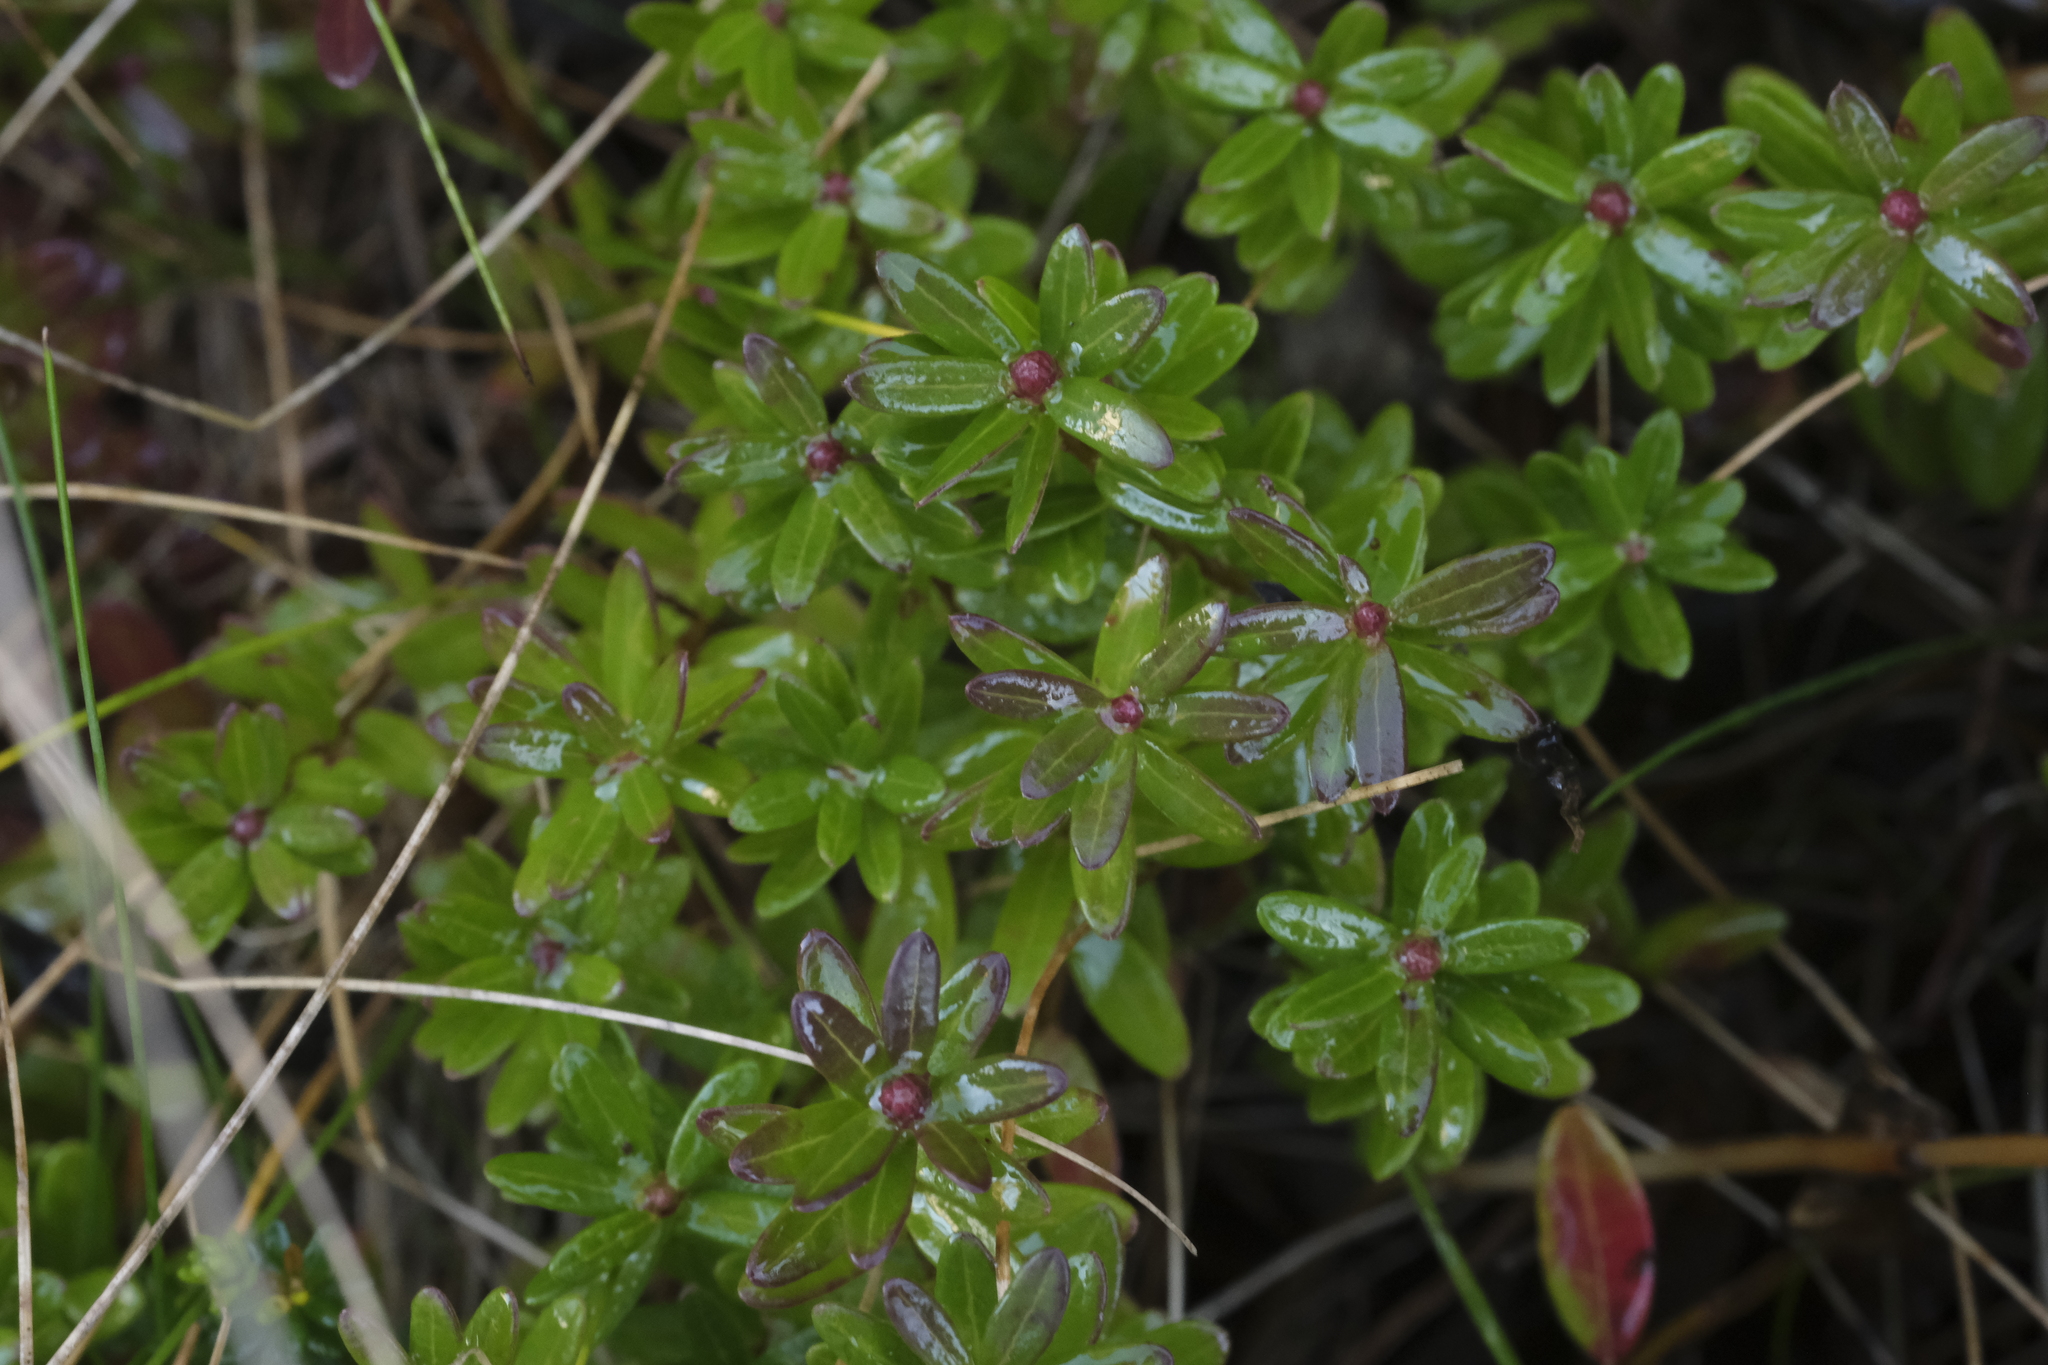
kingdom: Plantae
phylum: Tracheophyta
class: Magnoliopsida
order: Ericales
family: Ericaceae
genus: Vaccinium
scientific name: Vaccinium macrocarpon
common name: American cranberry
